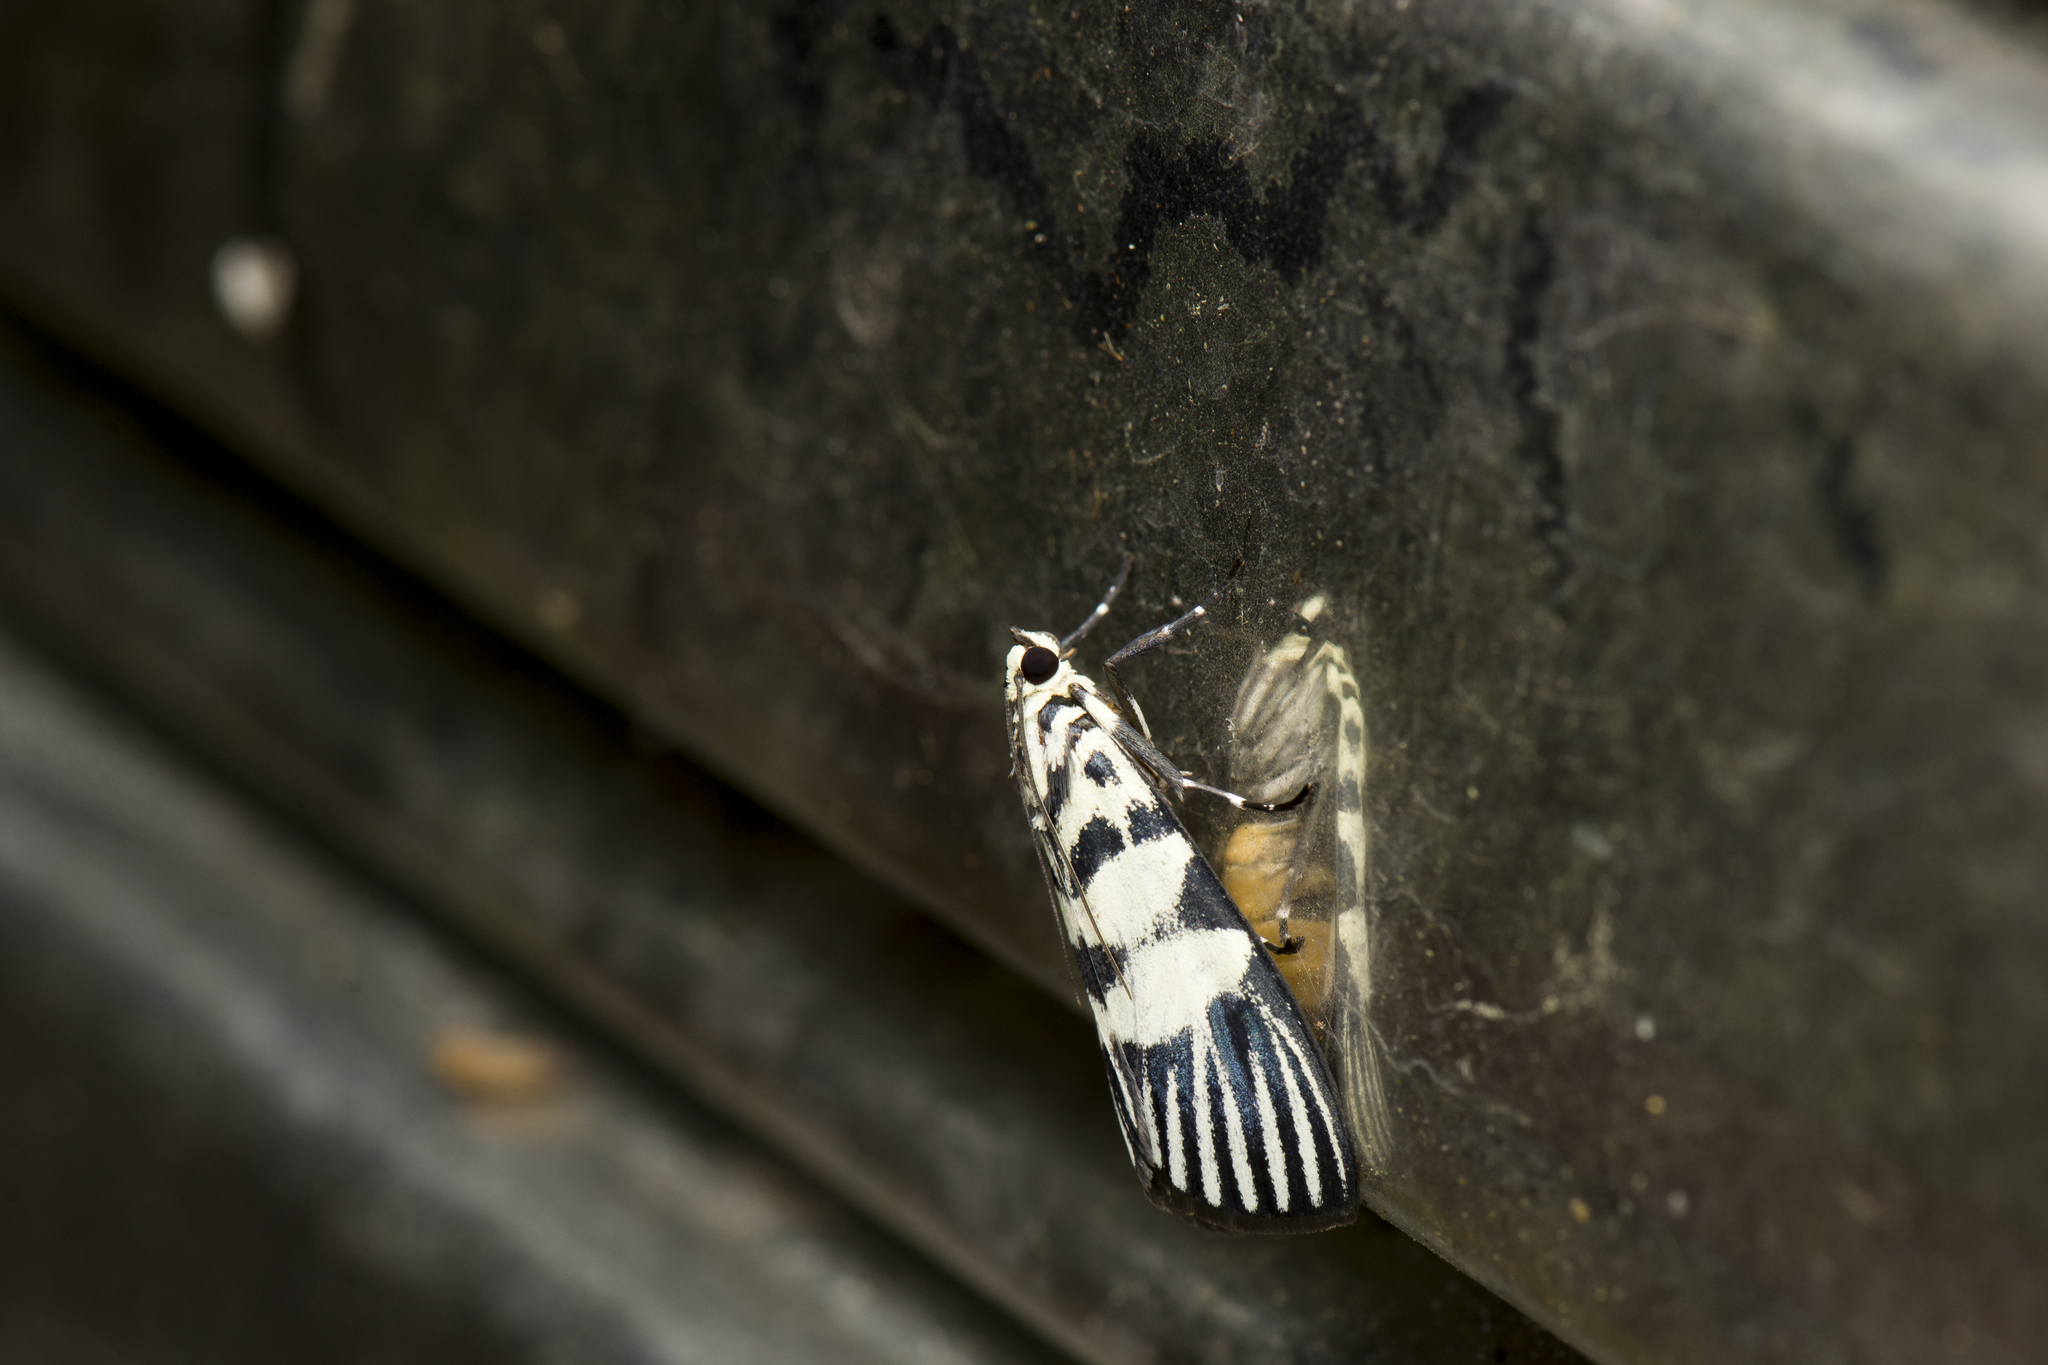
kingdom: Animalia
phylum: Arthropoda
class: Insecta
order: Lepidoptera
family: Crambidae
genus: Heortia
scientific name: Heortia vitessoides
